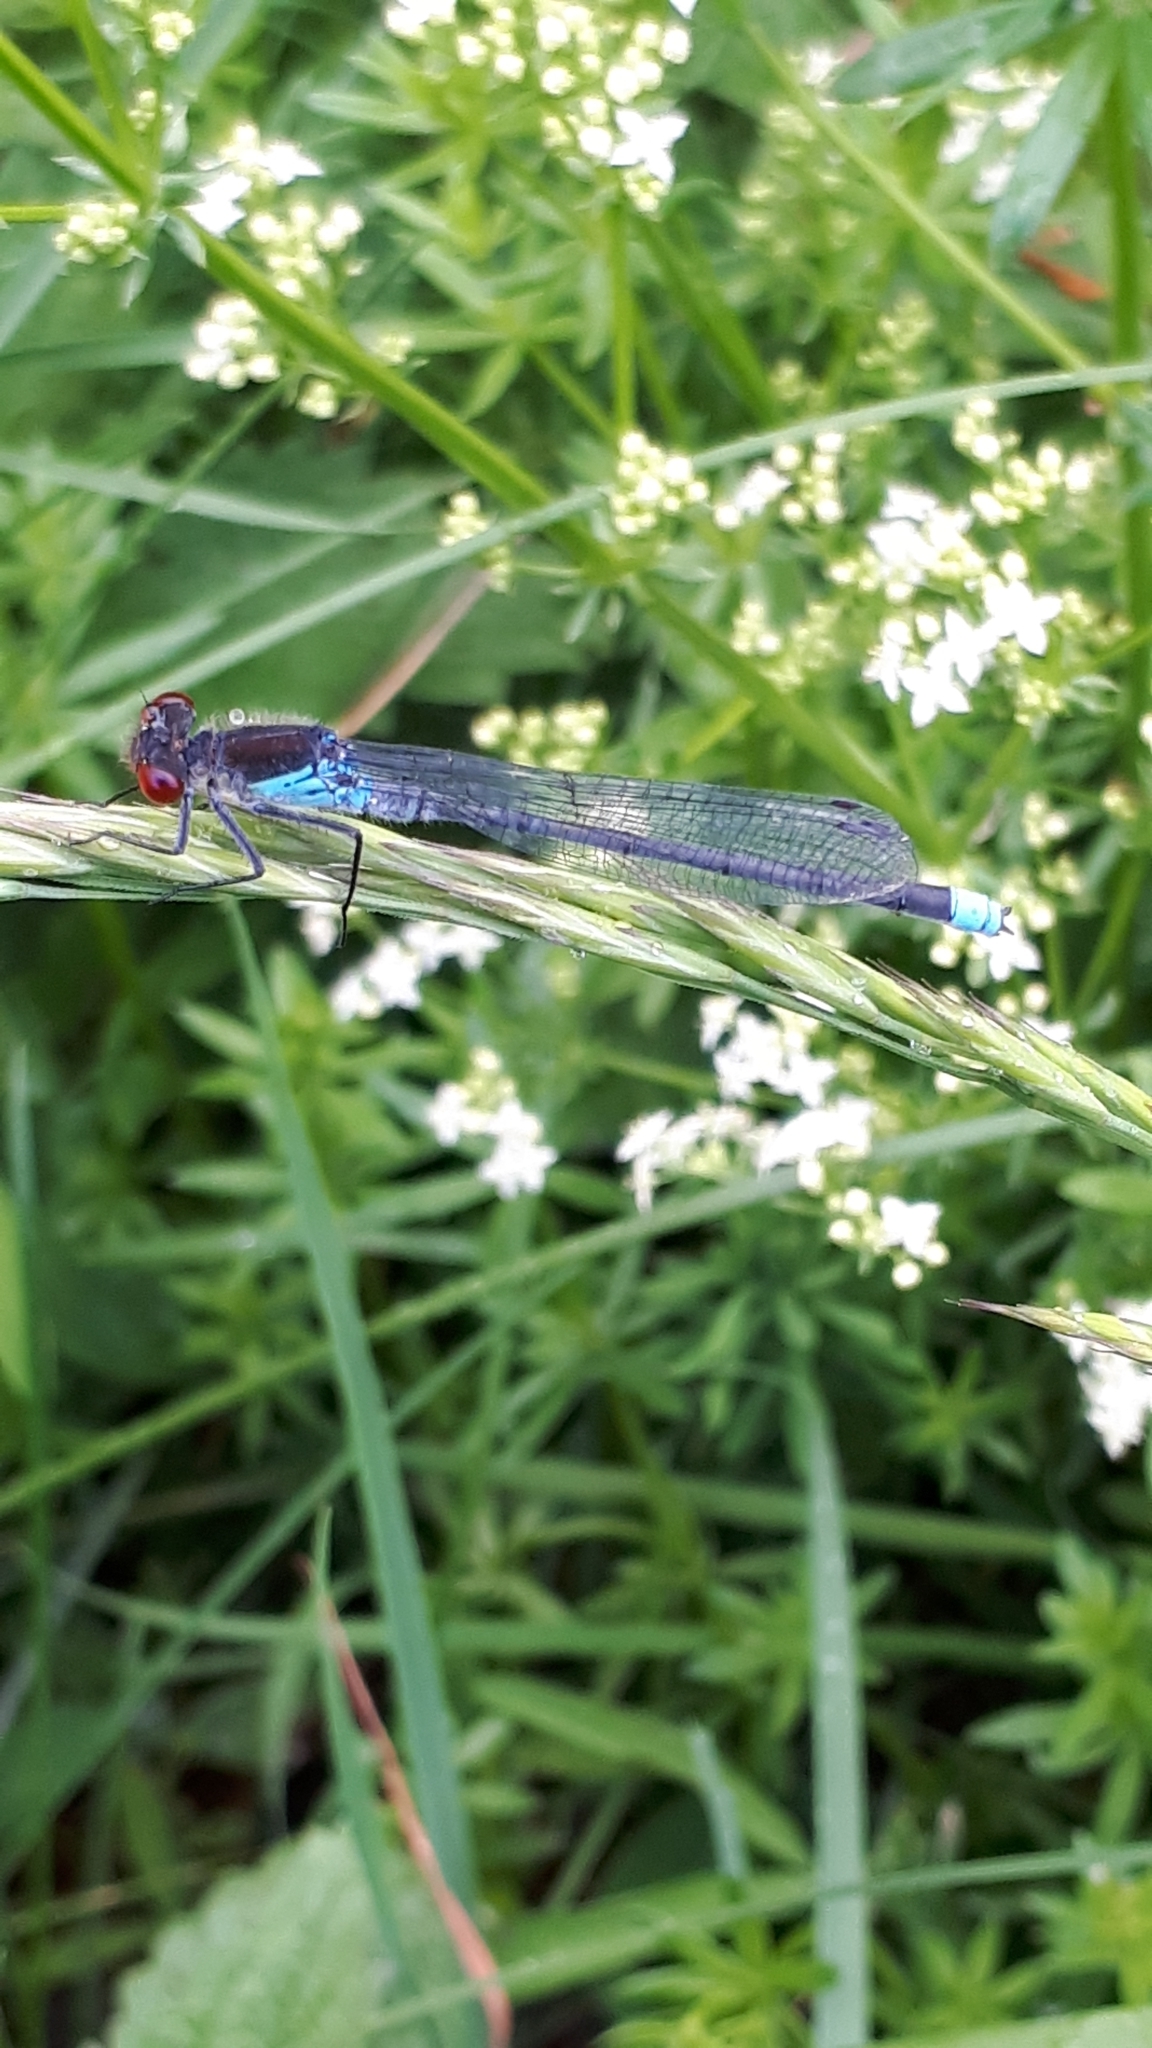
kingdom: Animalia
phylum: Arthropoda
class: Insecta
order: Odonata
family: Coenagrionidae
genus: Erythromma
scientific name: Erythromma najas
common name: Red-eyed damselfly
